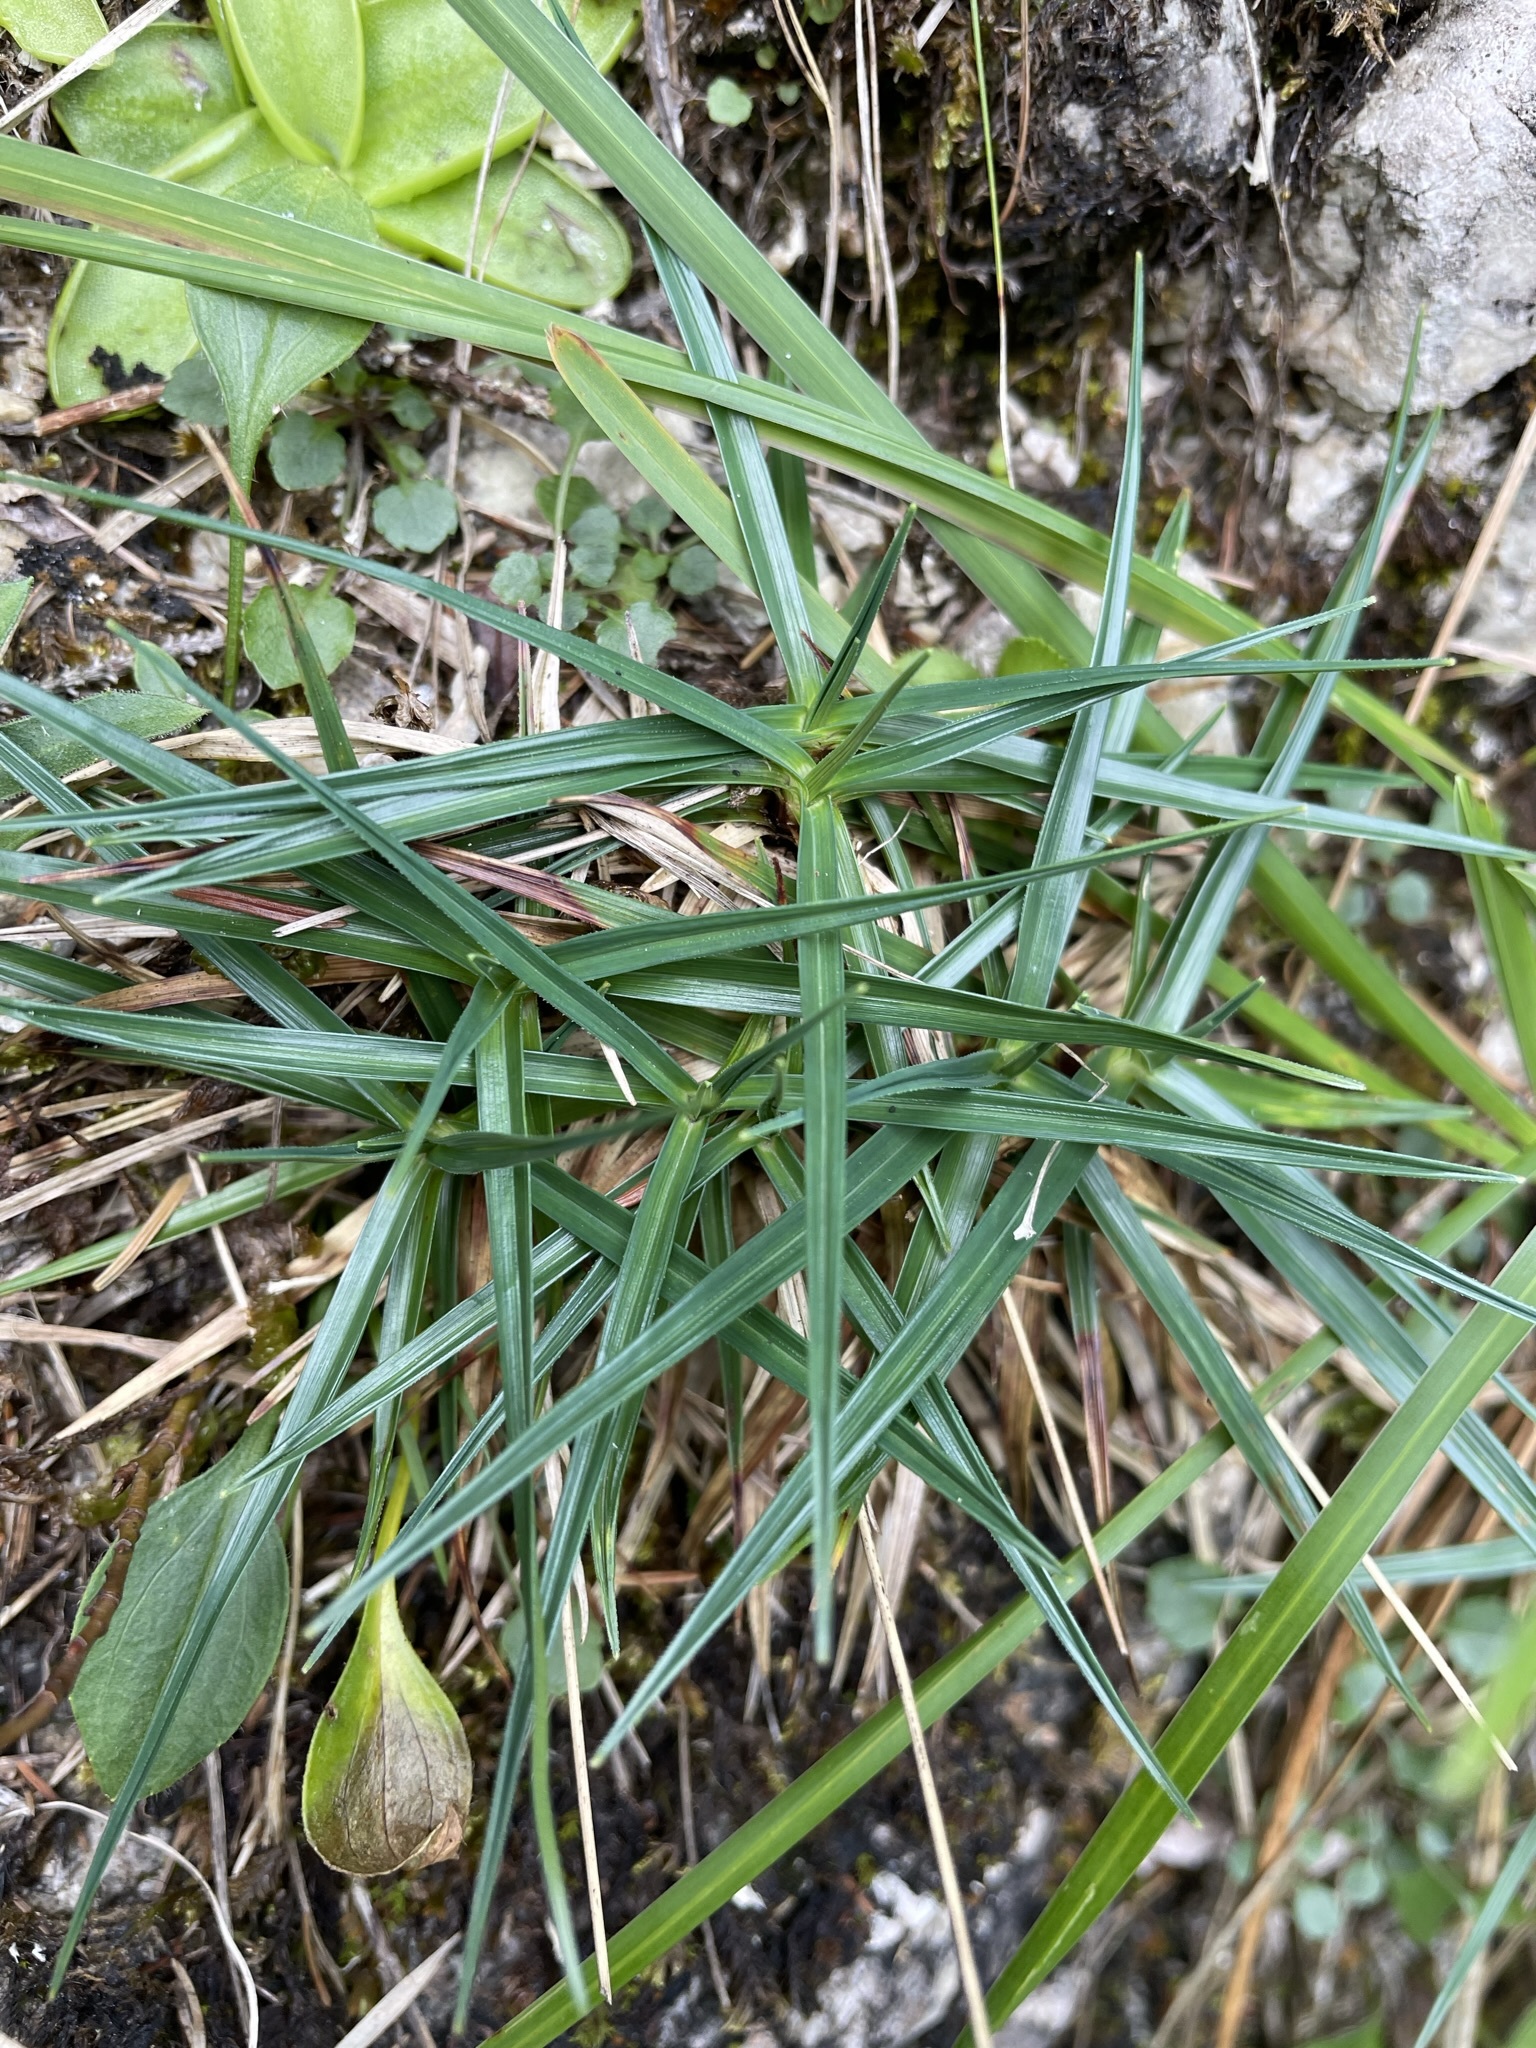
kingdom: Plantae
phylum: Tracheophyta
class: Liliopsida
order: Poales
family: Cyperaceae
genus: Carex
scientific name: Carex firma
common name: Dwarf pillow sedge
